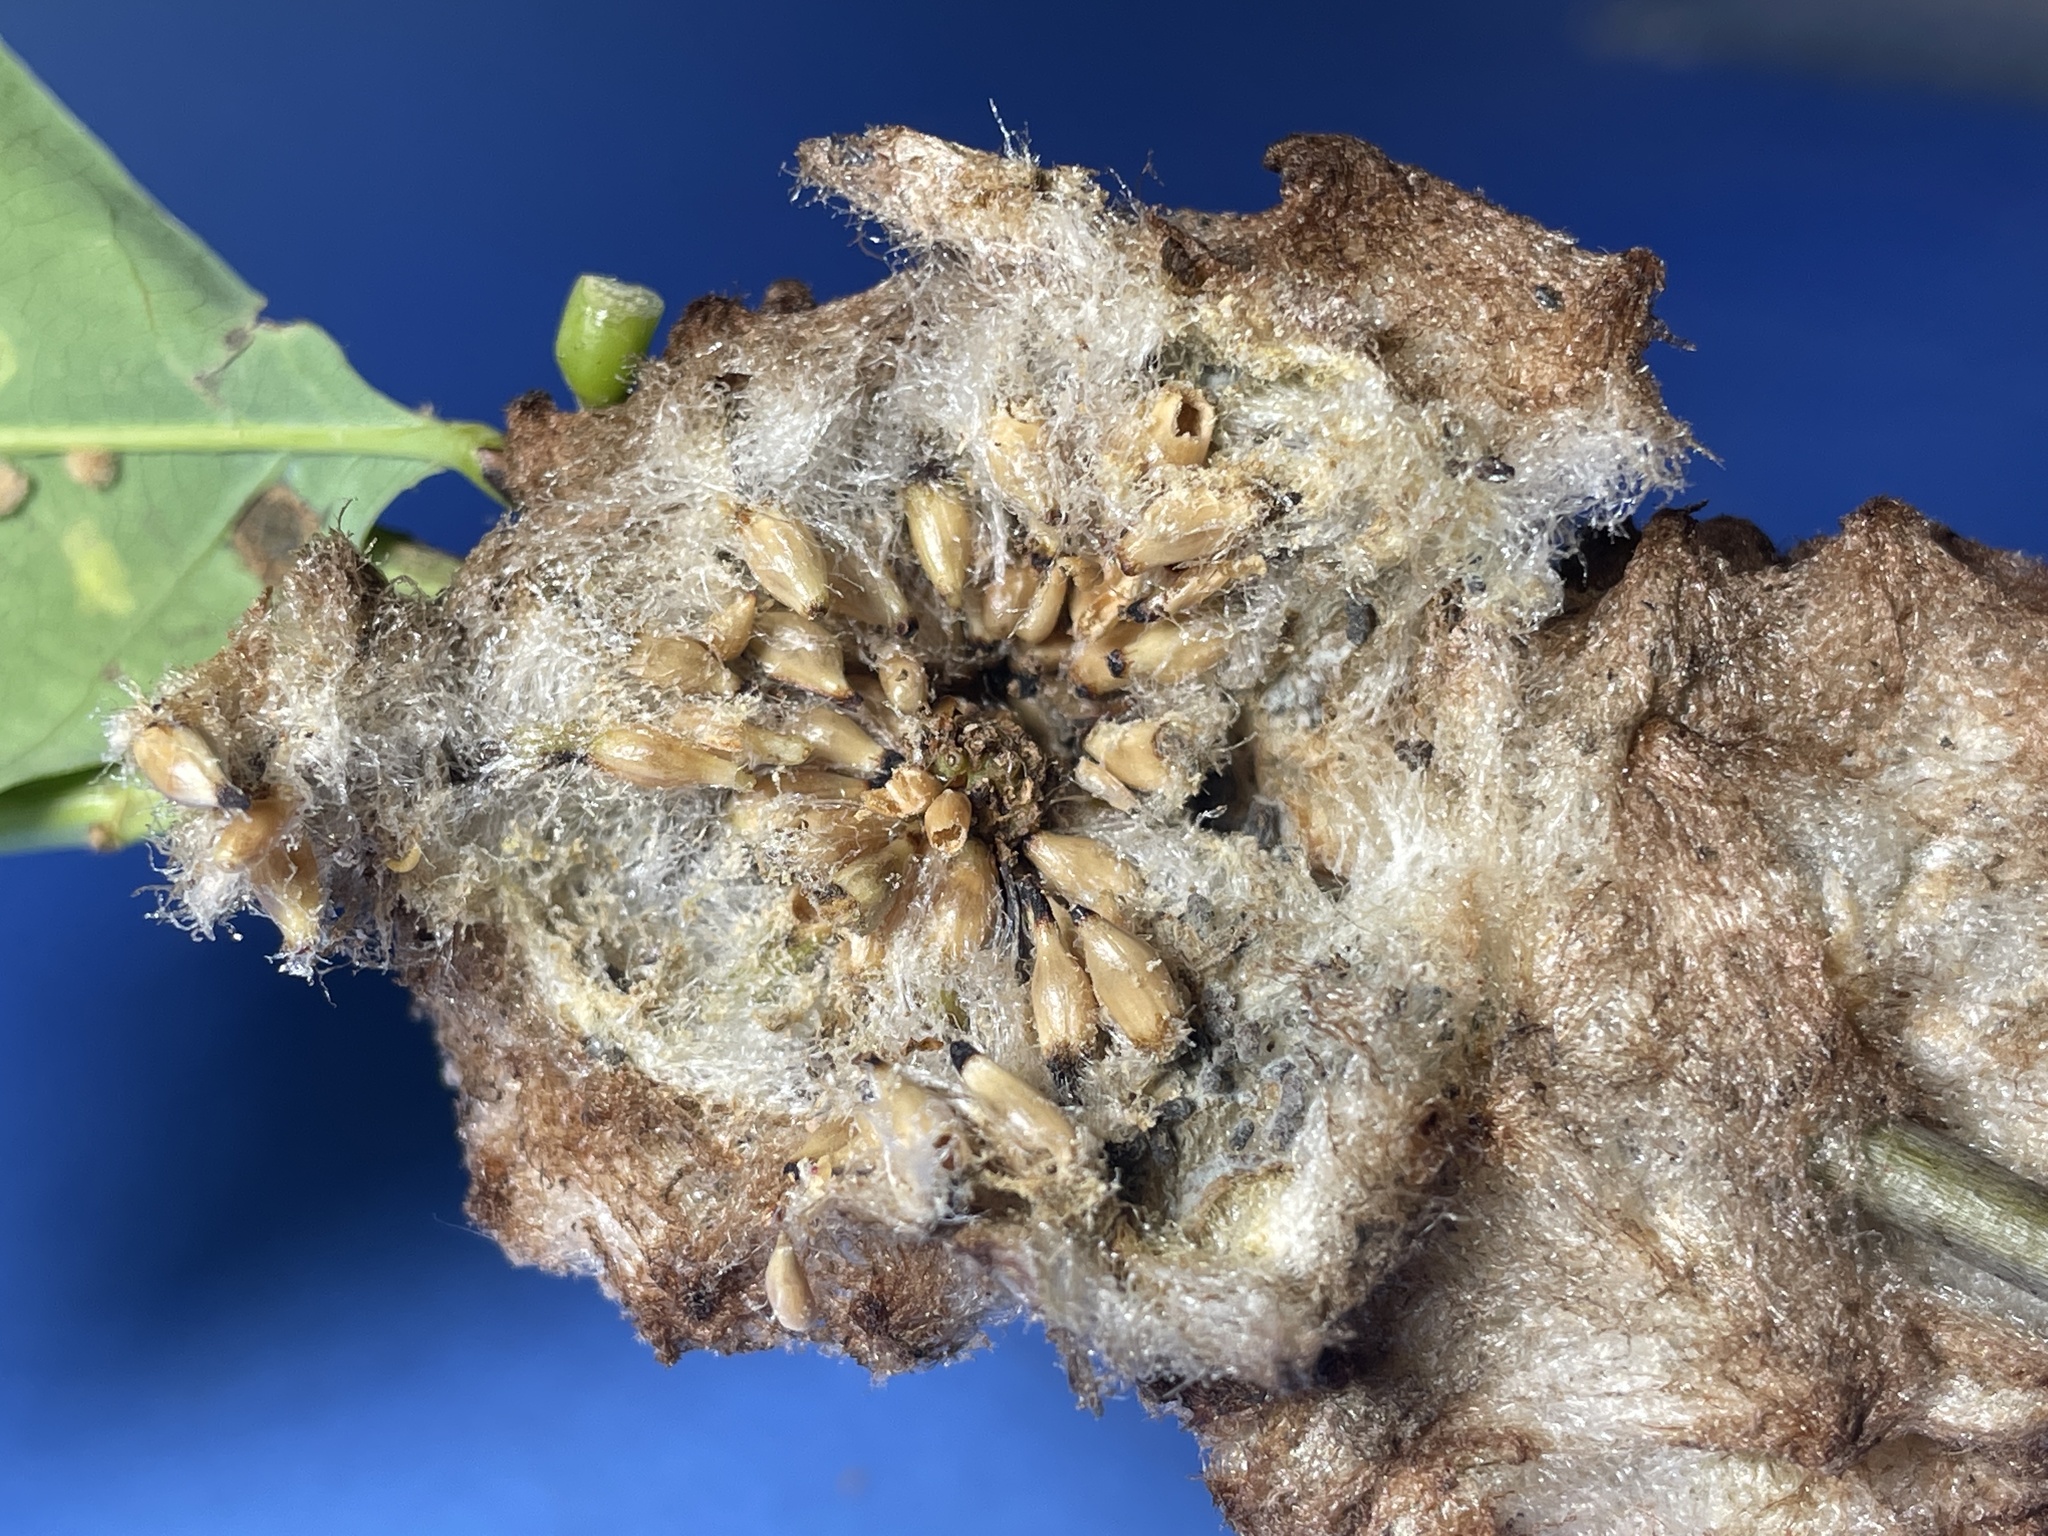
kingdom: Animalia
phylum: Arthropoda
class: Insecta
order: Hymenoptera
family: Cynipidae
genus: Callirhytis
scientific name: Callirhytis
